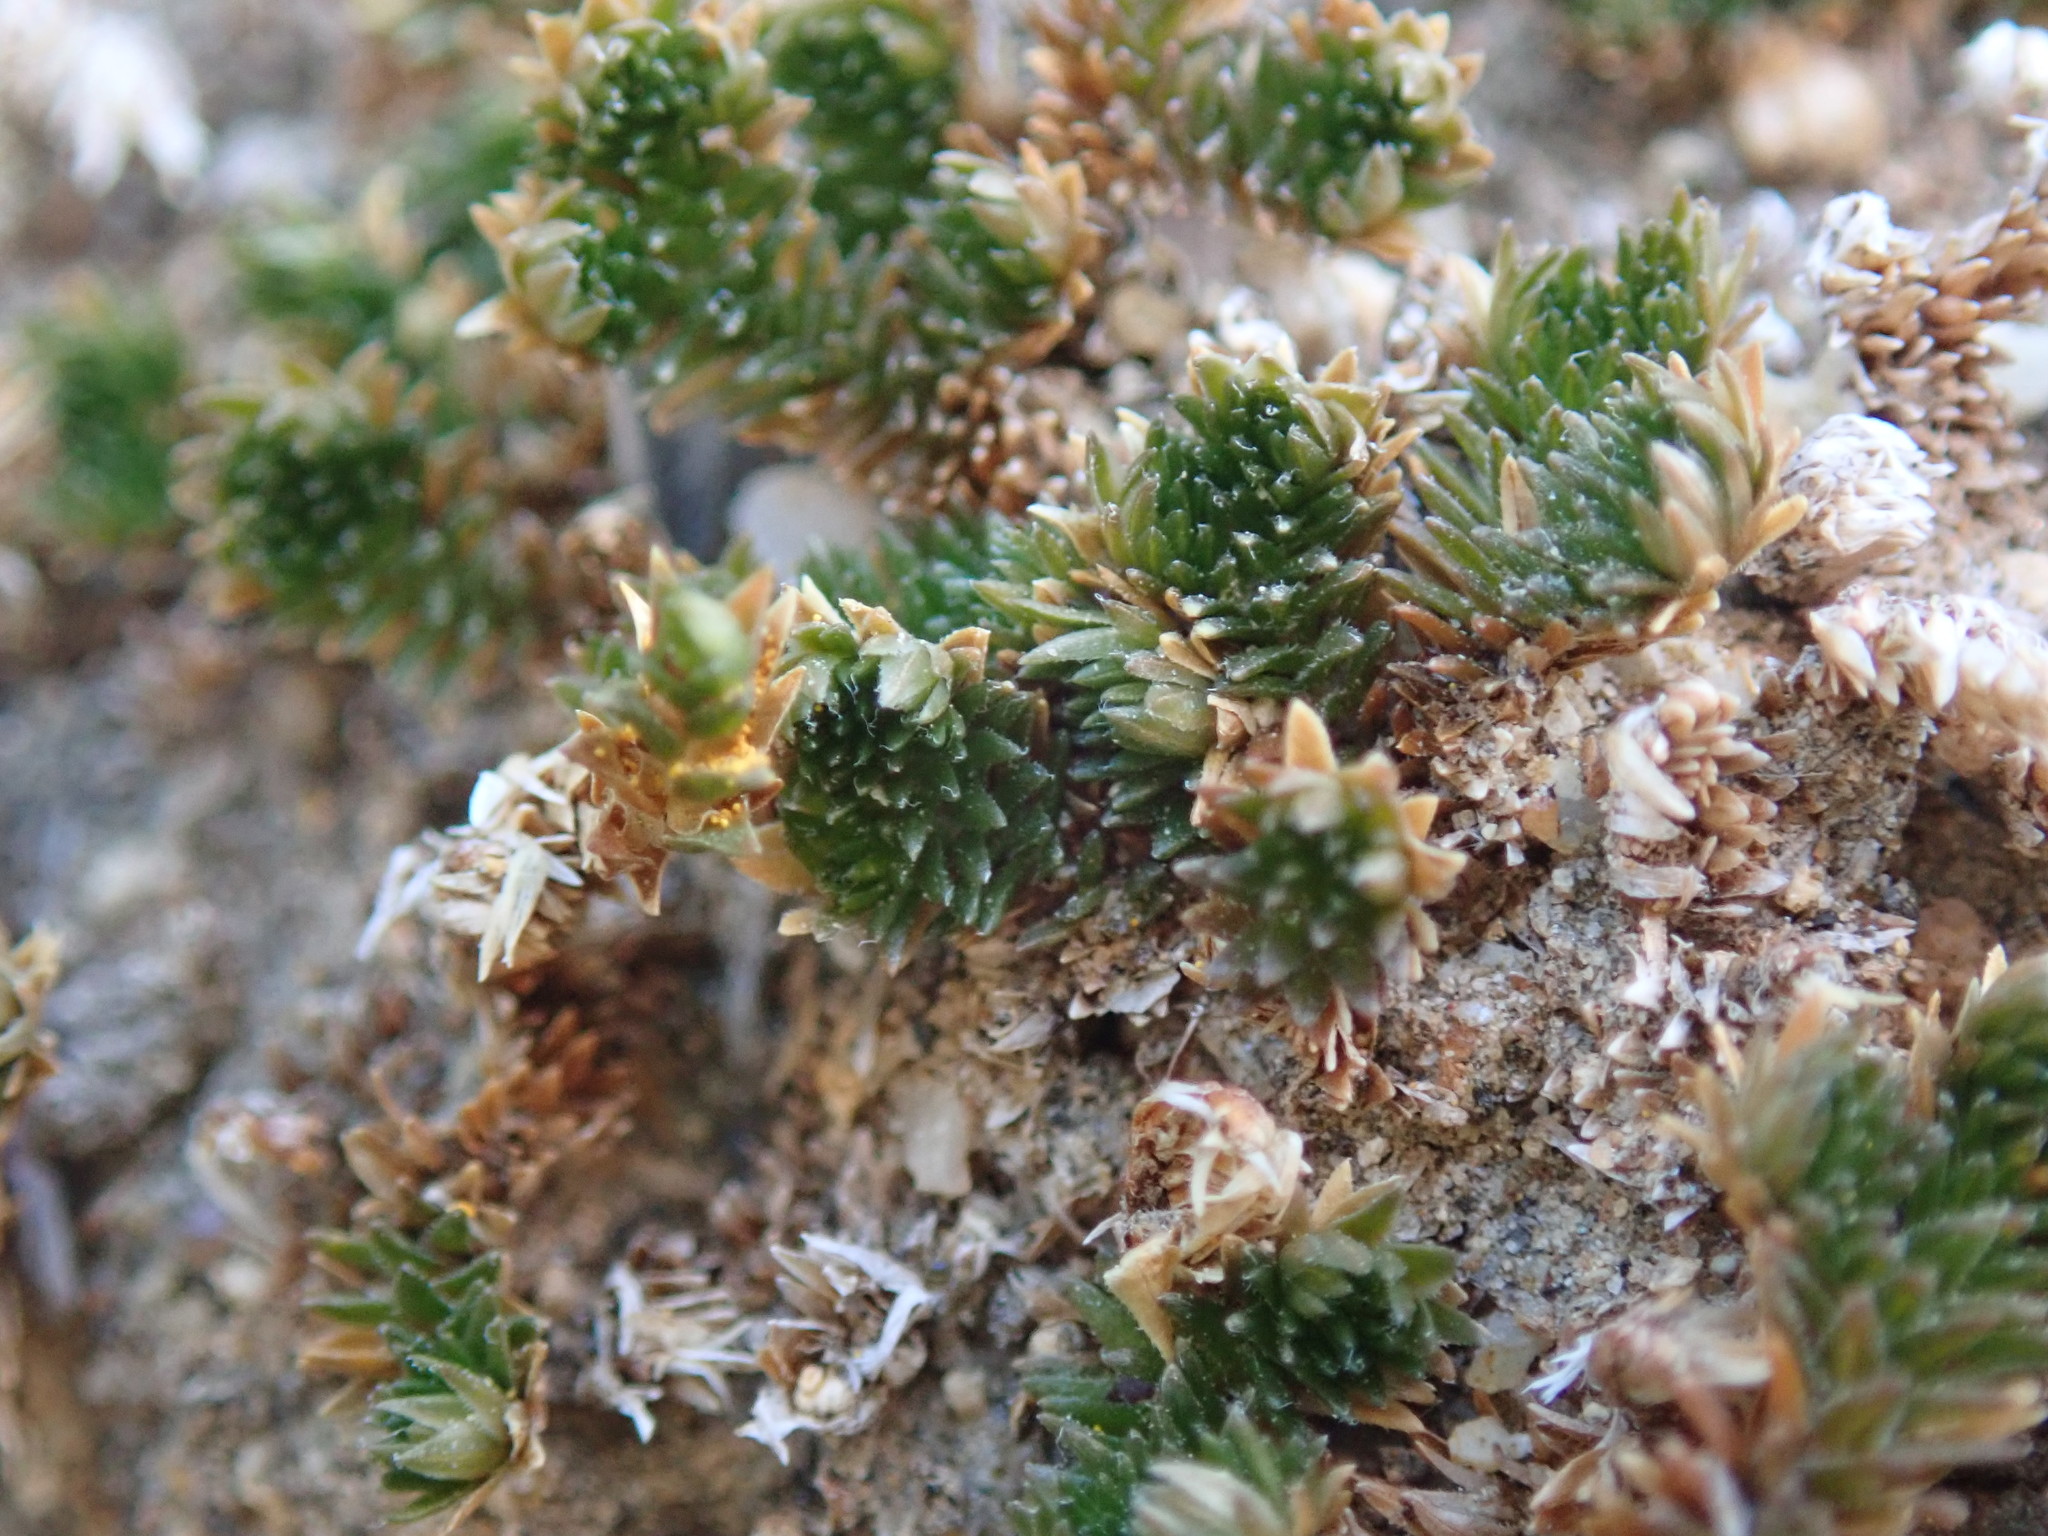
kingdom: Plantae
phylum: Tracheophyta
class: Lycopodiopsida
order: Selaginellales
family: Selaginellaceae
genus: Selaginella
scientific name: Selaginella eremophila
